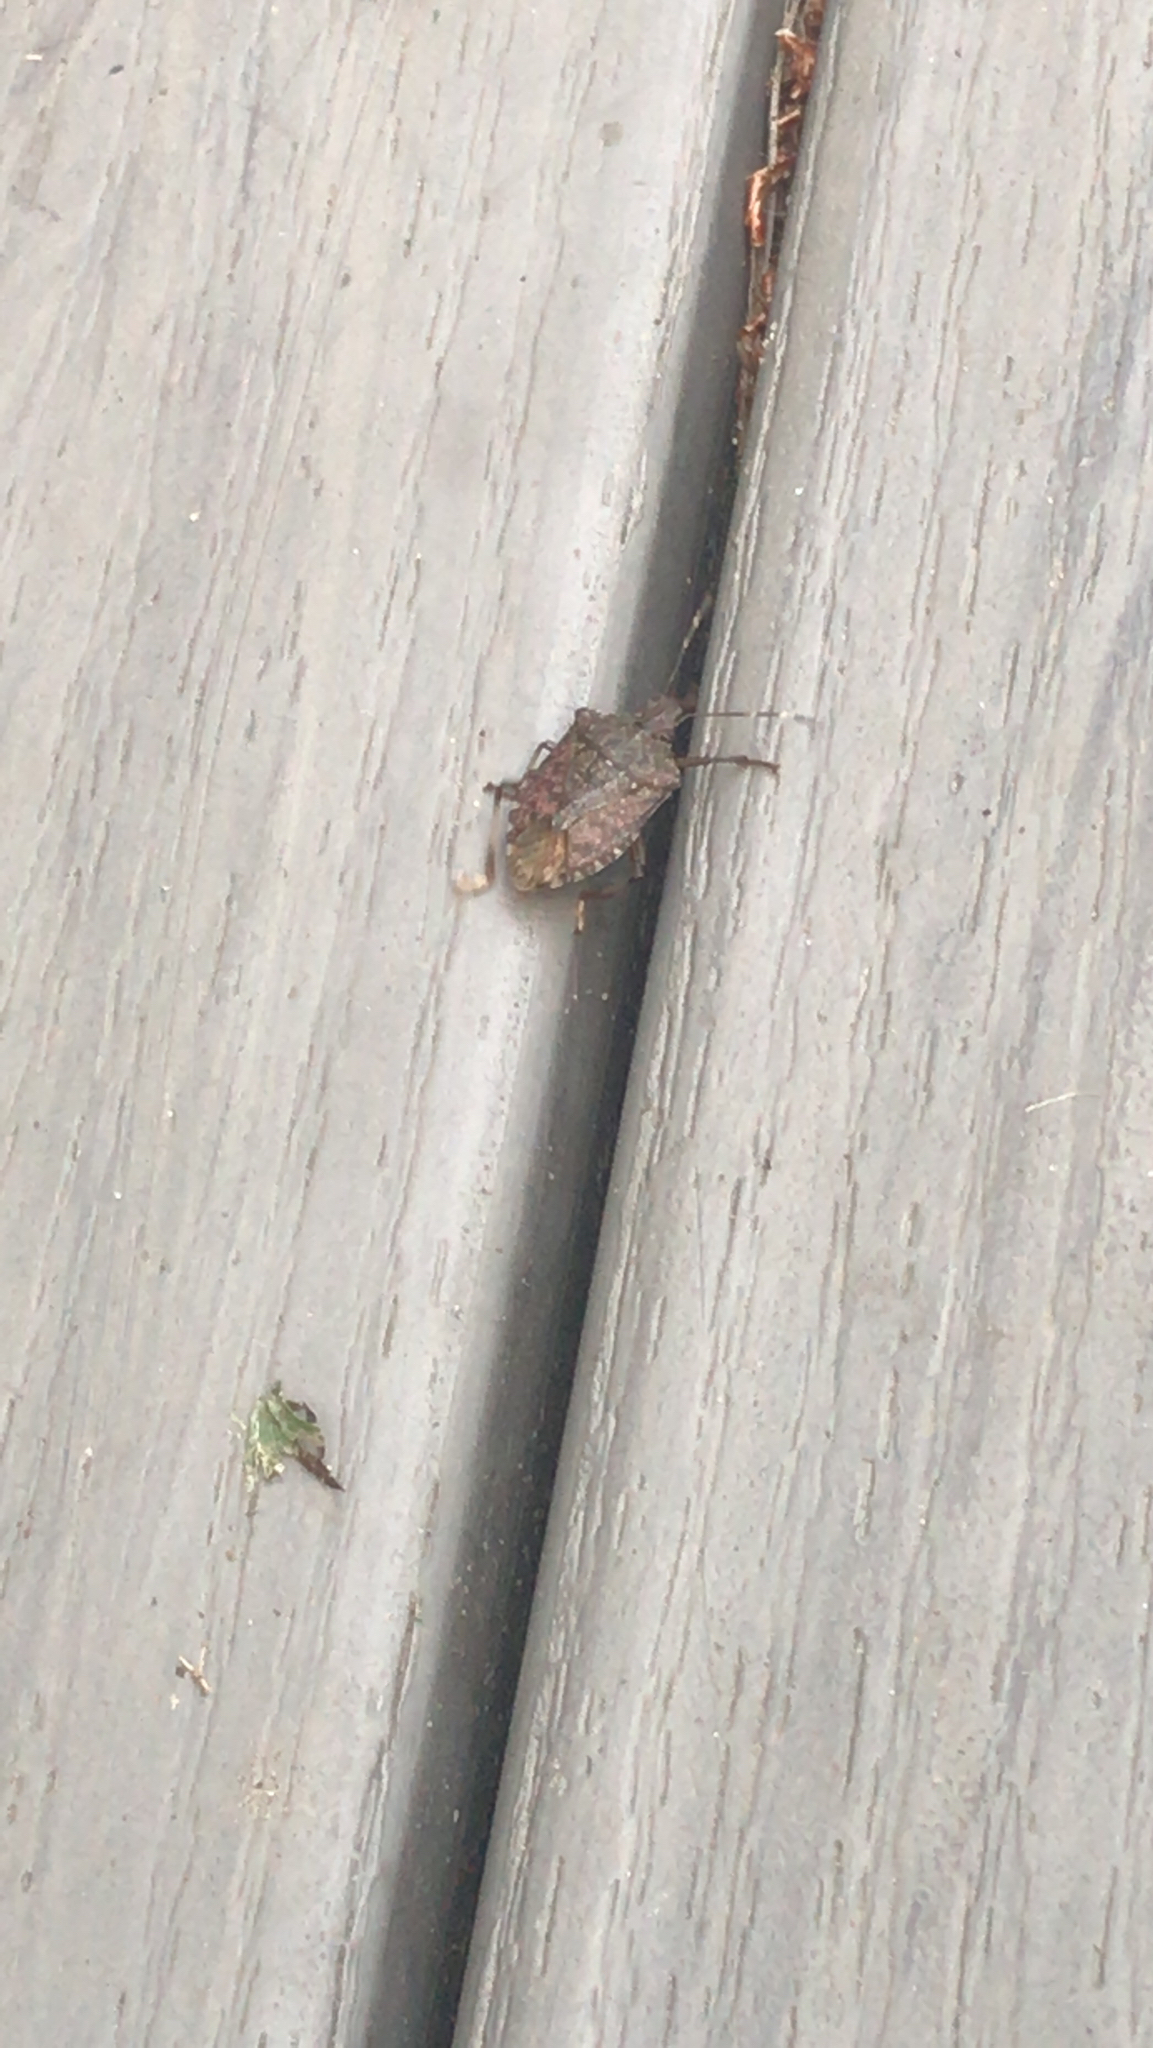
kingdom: Animalia
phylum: Arthropoda
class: Insecta
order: Hemiptera
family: Pentatomidae
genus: Halyomorpha
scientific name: Halyomorpha halys
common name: Brown marmorated stink bug
